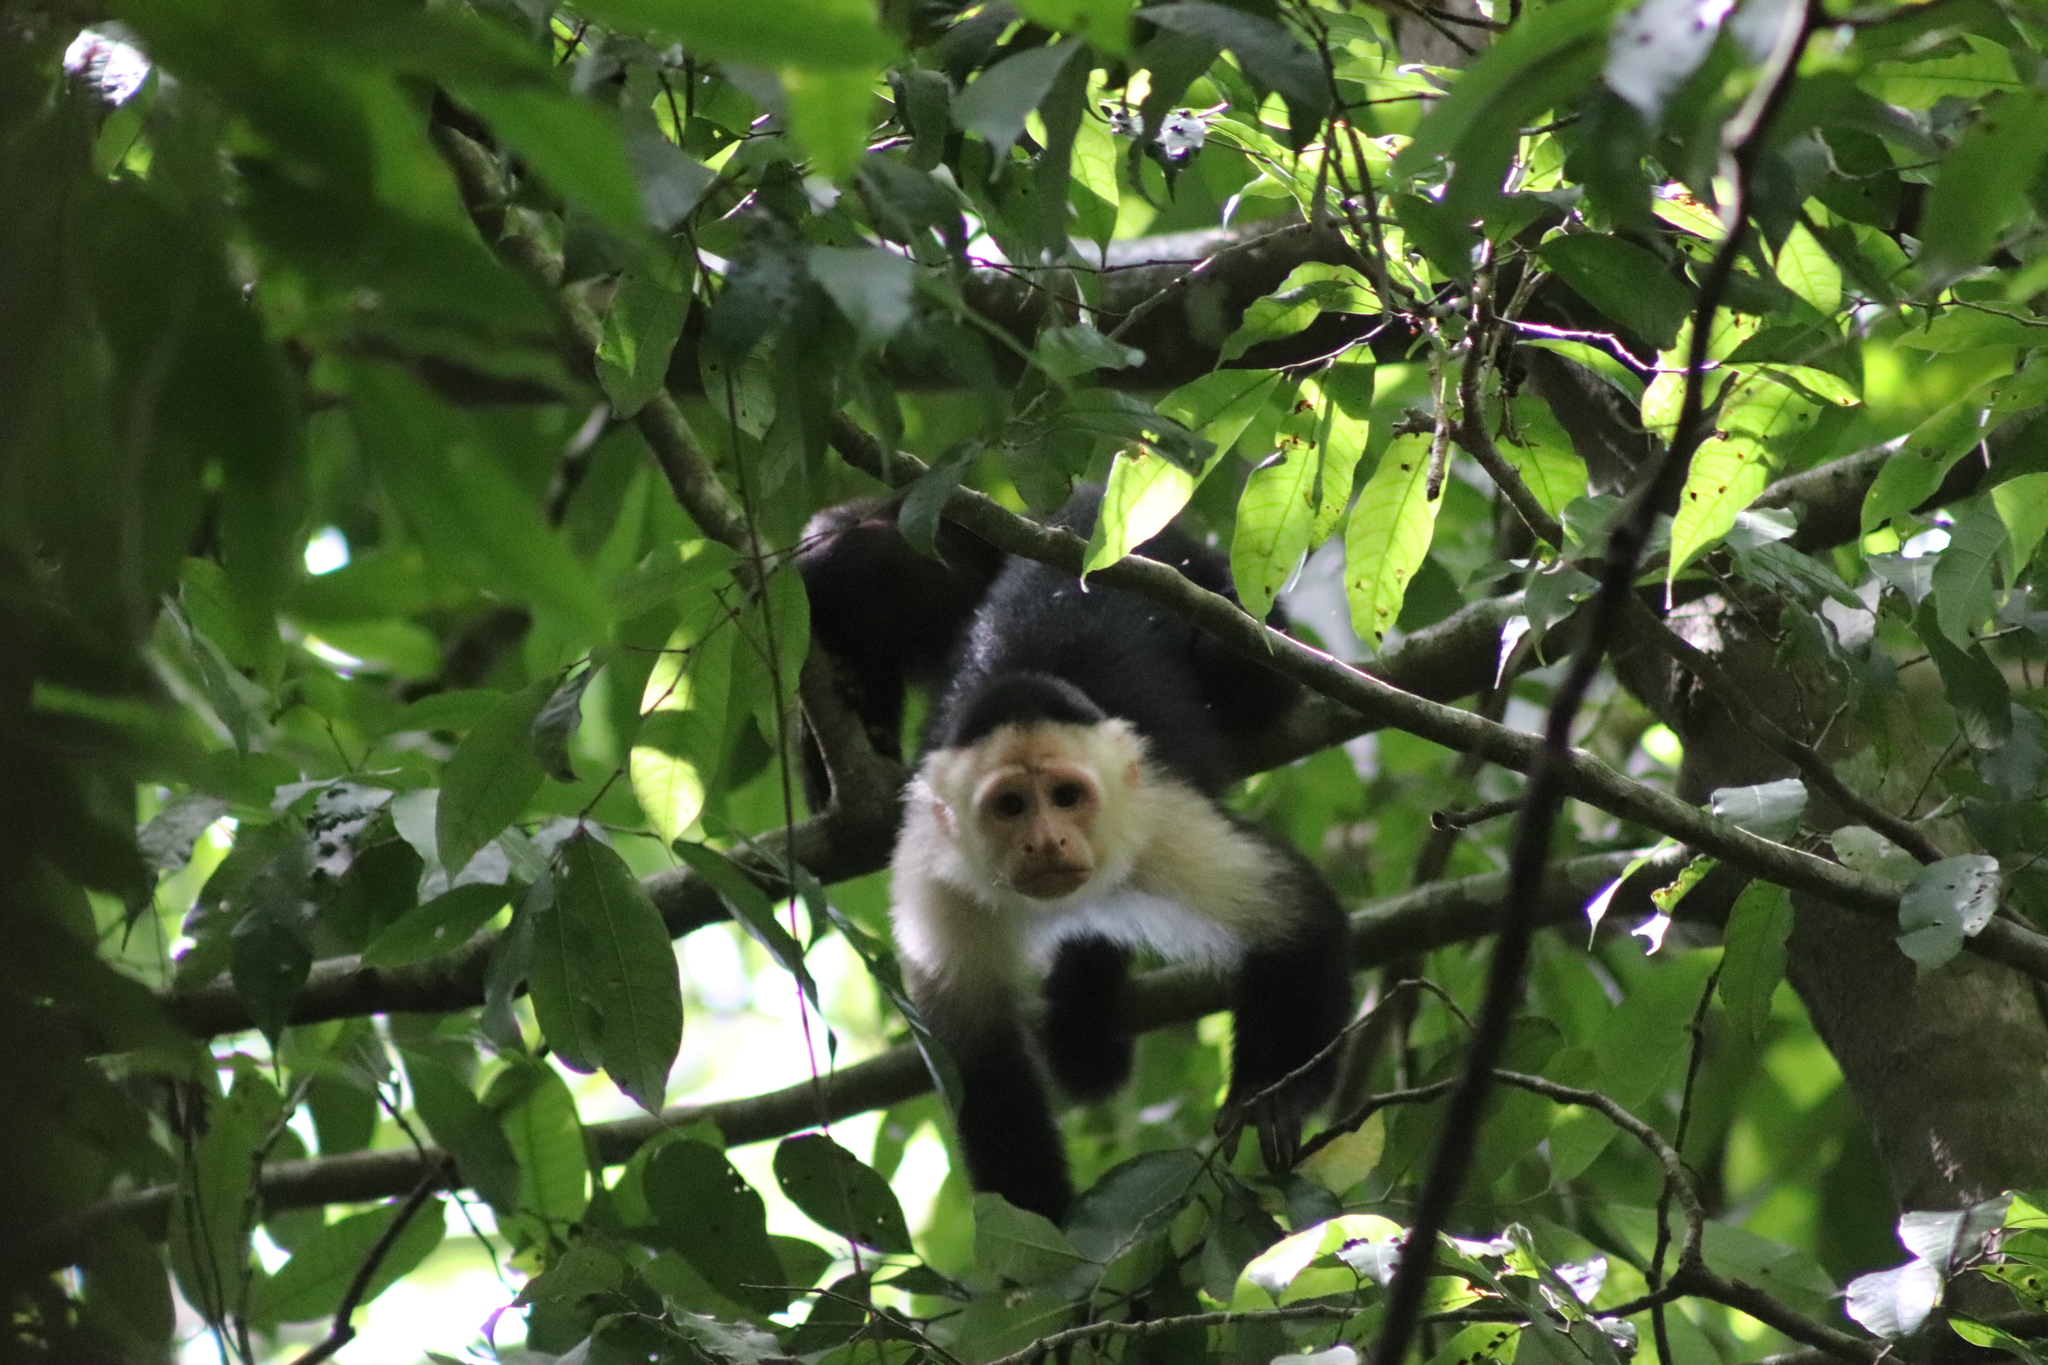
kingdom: Animalia
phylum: Chordata
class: Mammalia
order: Primates
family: Cebidae
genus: Cebus
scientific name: Cebus imitator
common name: Panamanian white-faced capuchin
